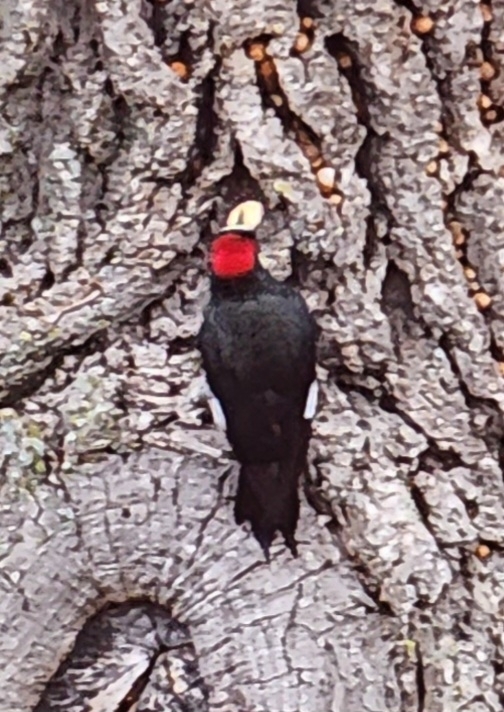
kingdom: Animalia
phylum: Chordata
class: Aves
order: Piciformes
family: Picidae
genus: Melanerpes
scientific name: Melanerpes formicivorus
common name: Acorn woodpecker
